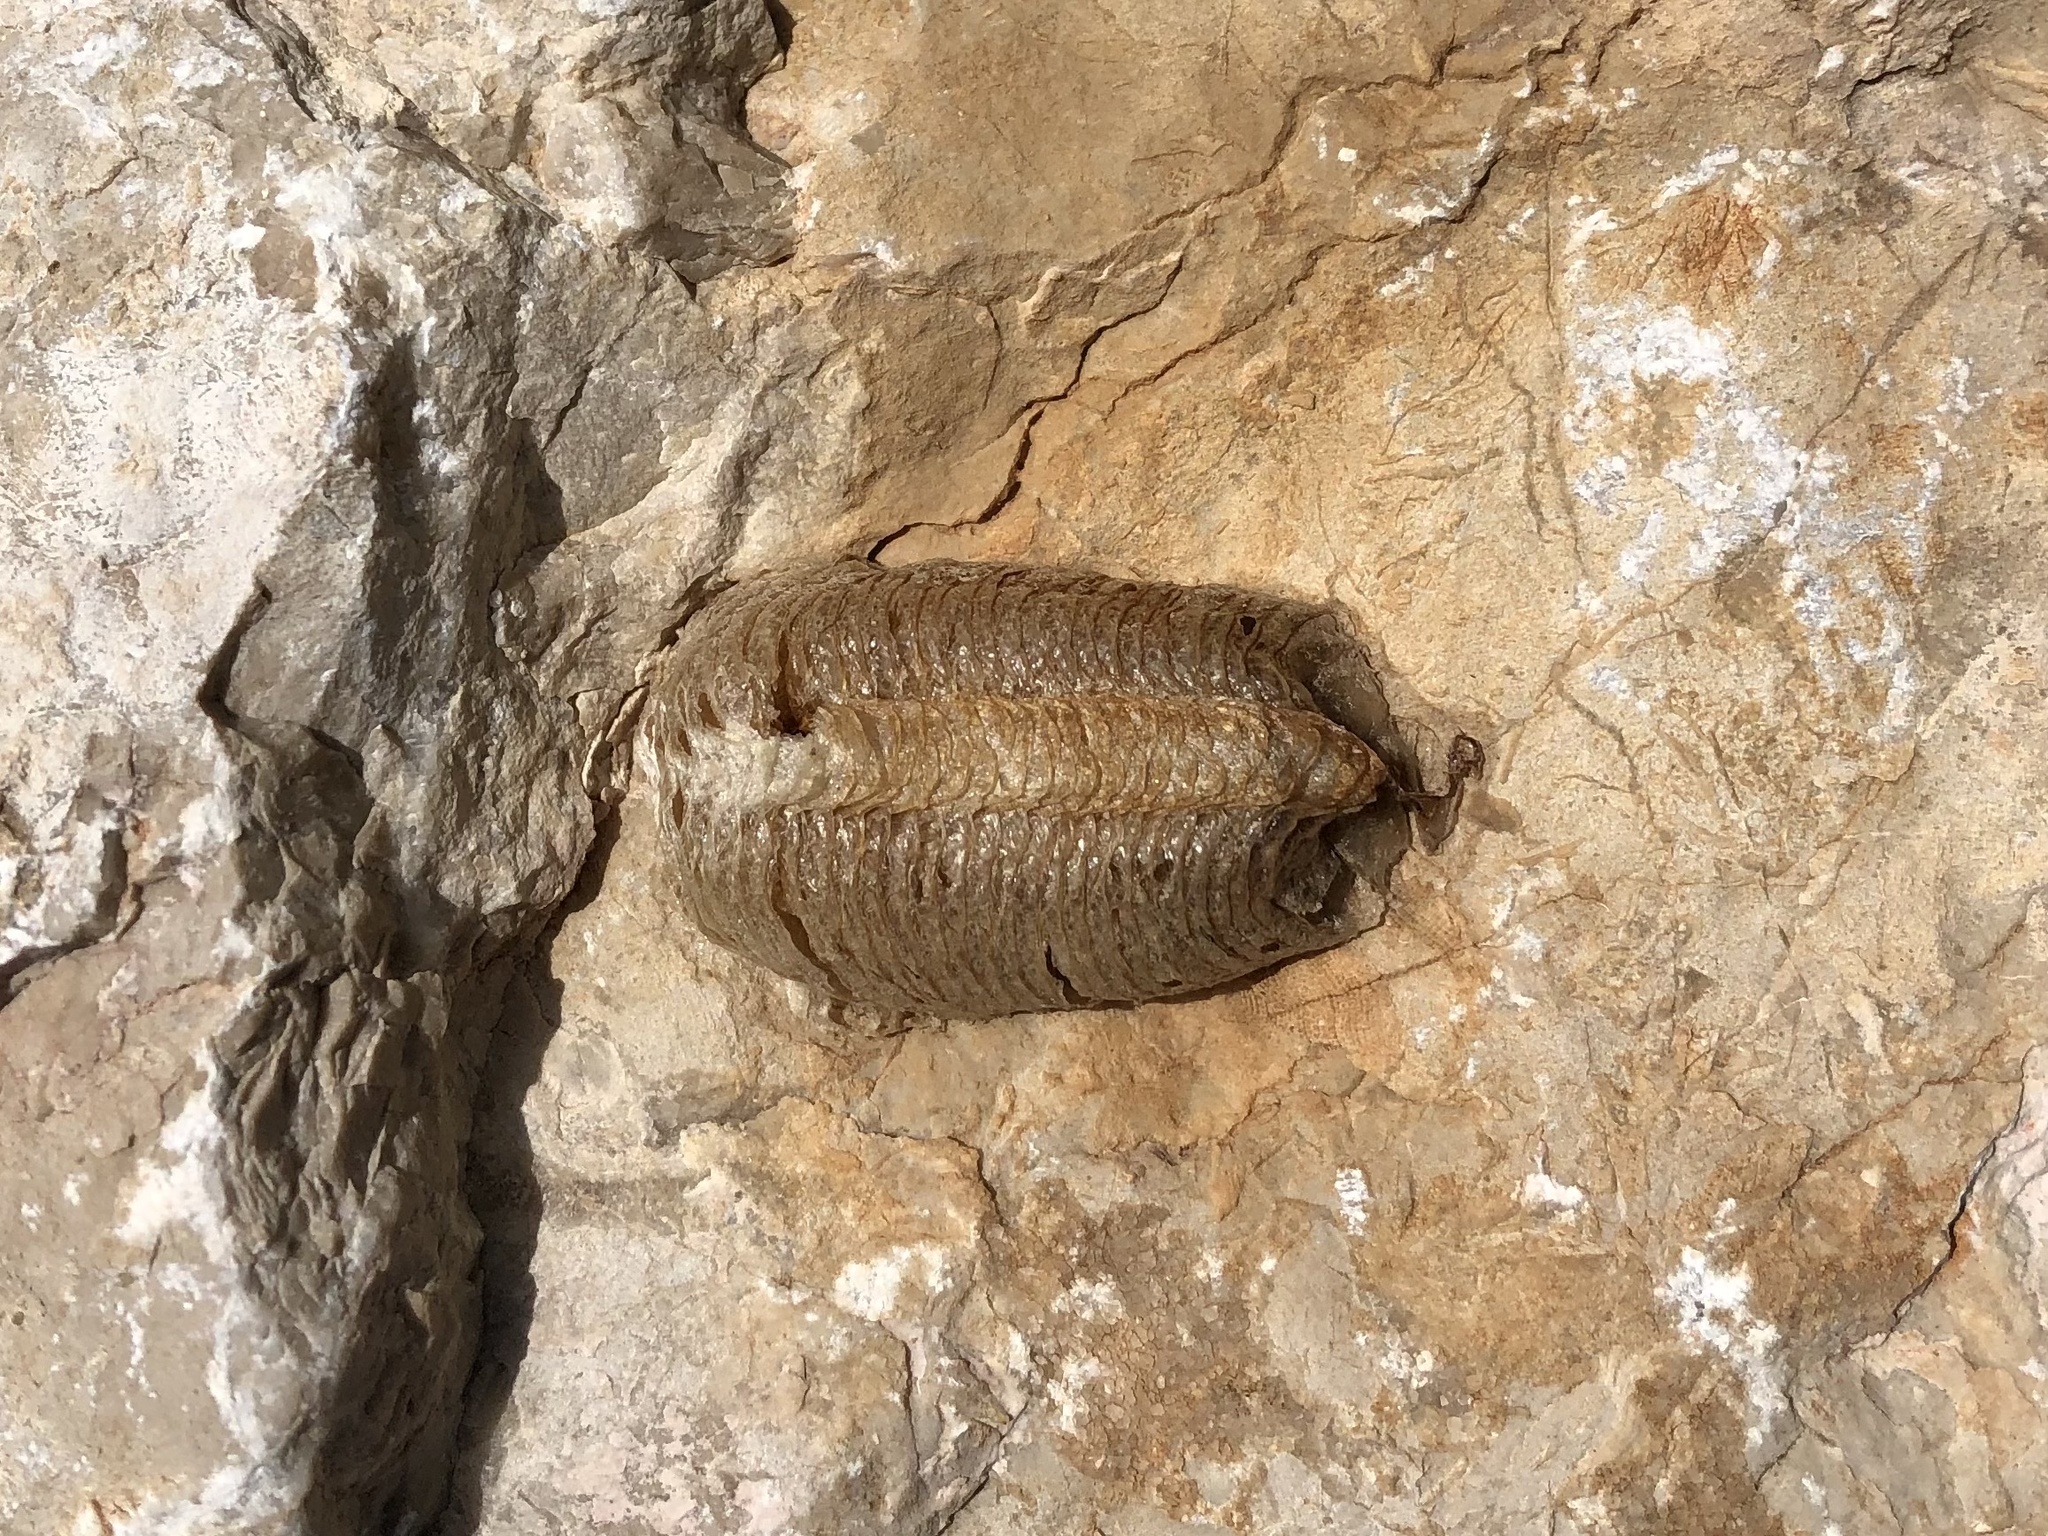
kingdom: Animalia
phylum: Arthropoda
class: Insecta
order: Mantodea
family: Mantidae
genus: Mantis
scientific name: Mantis religiosa
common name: Praying mantis
